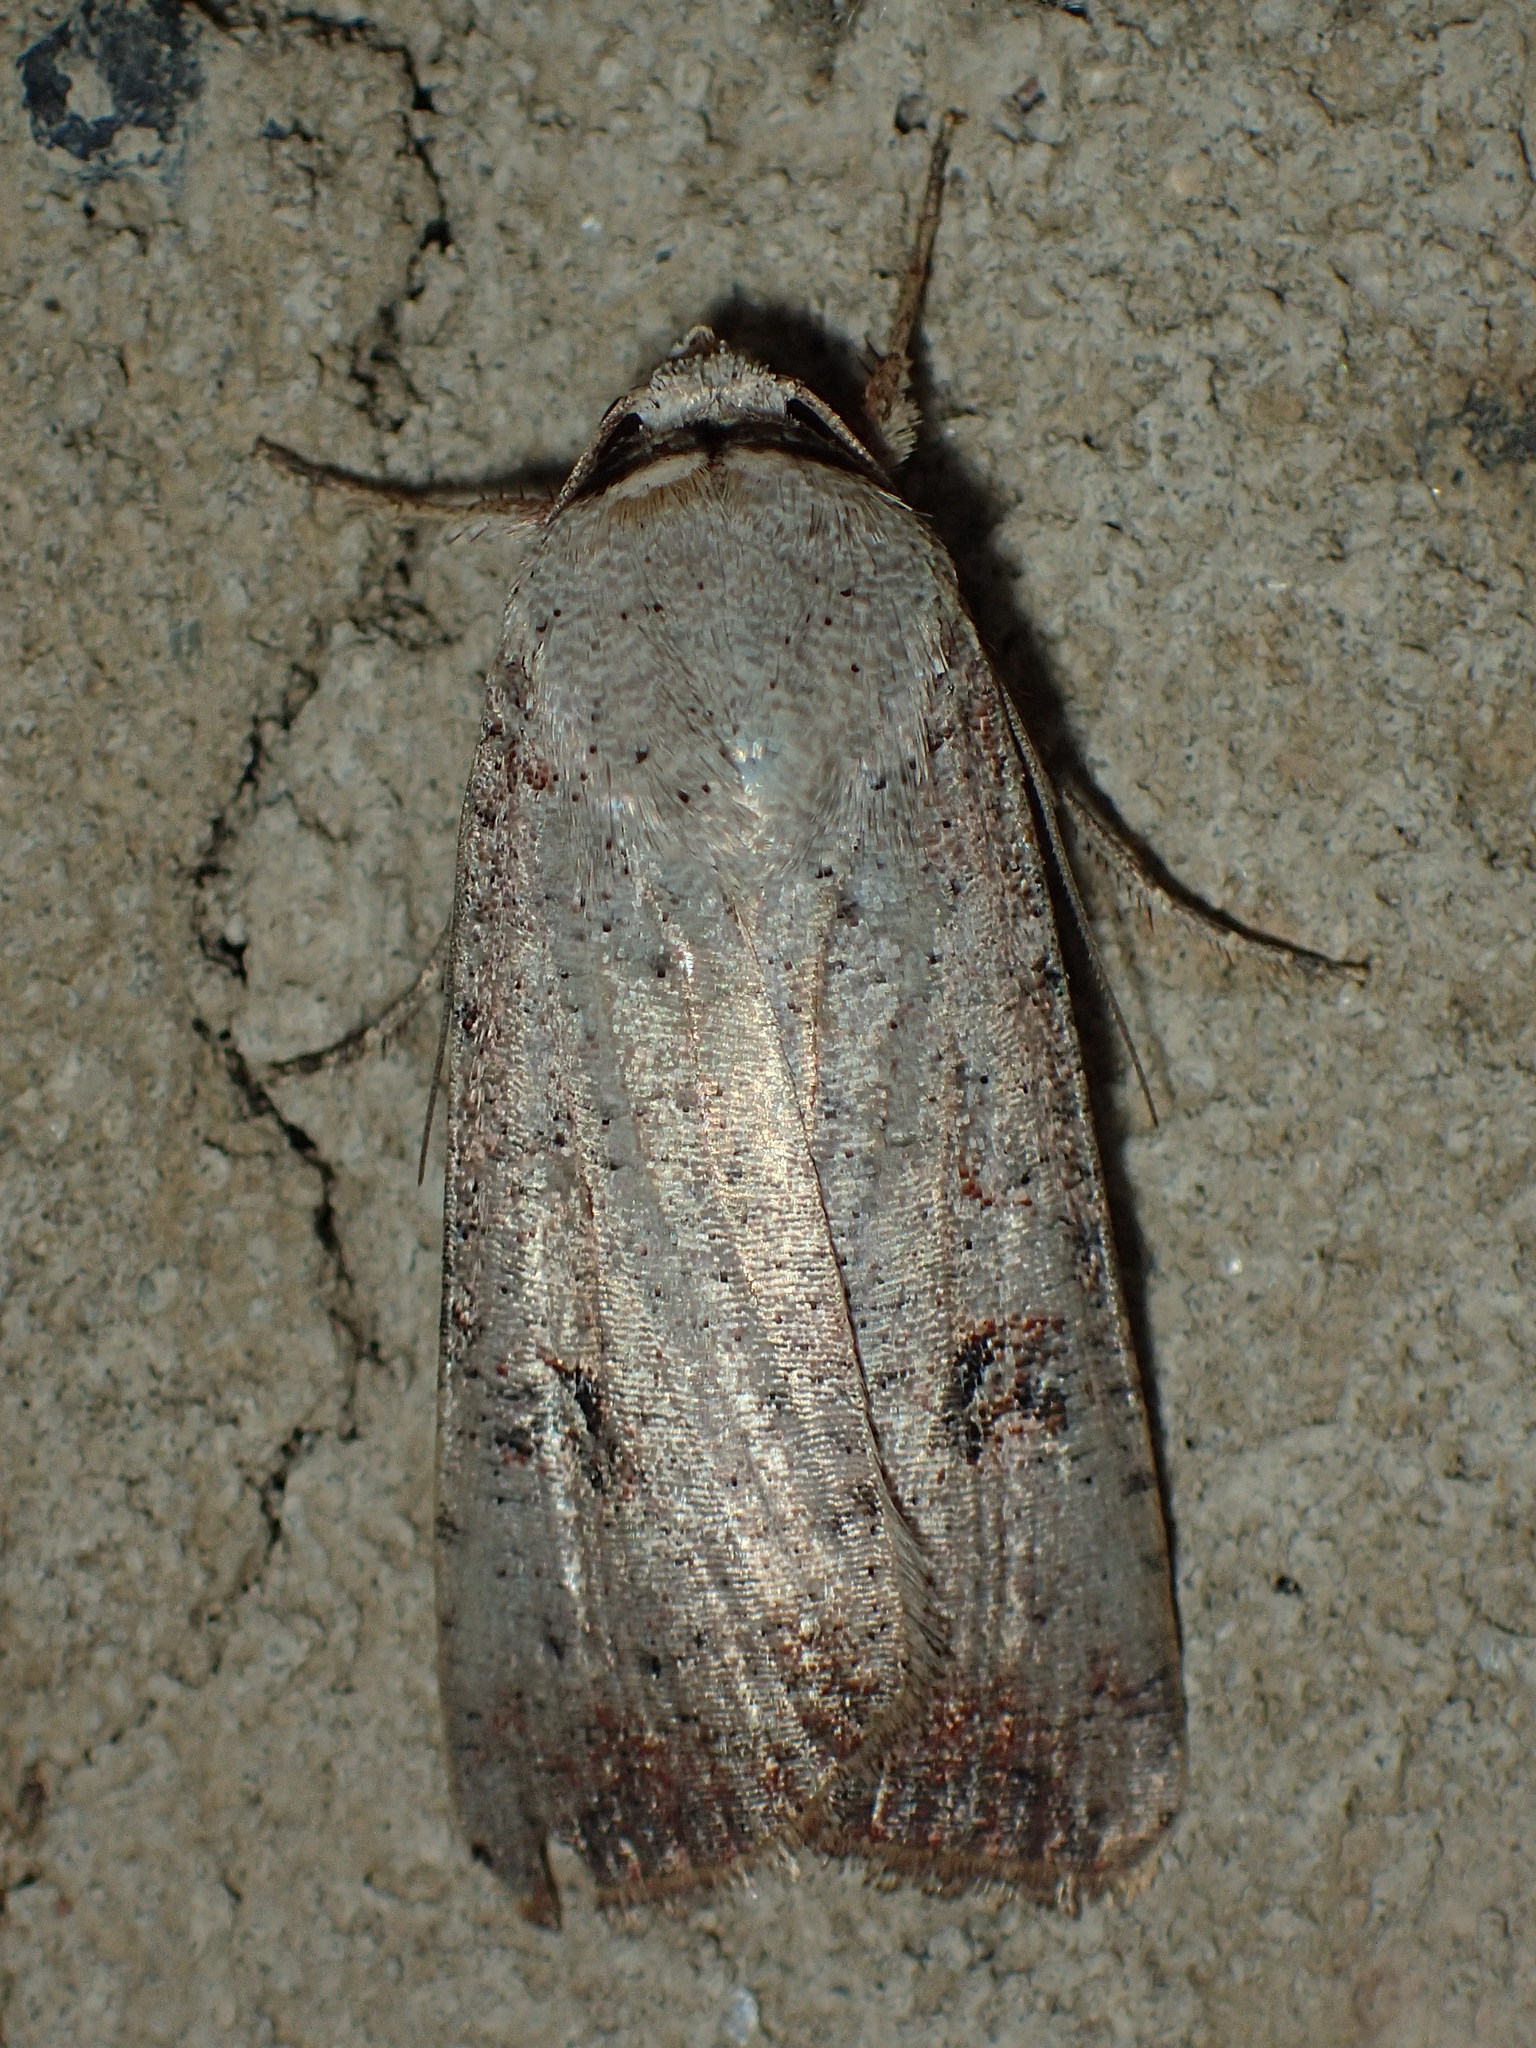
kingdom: Animalia
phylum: Arthropoda
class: Insecta
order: Lepidoptera
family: Noctuidae
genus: Anicla
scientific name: Anicla infecta
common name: Green cutworm
